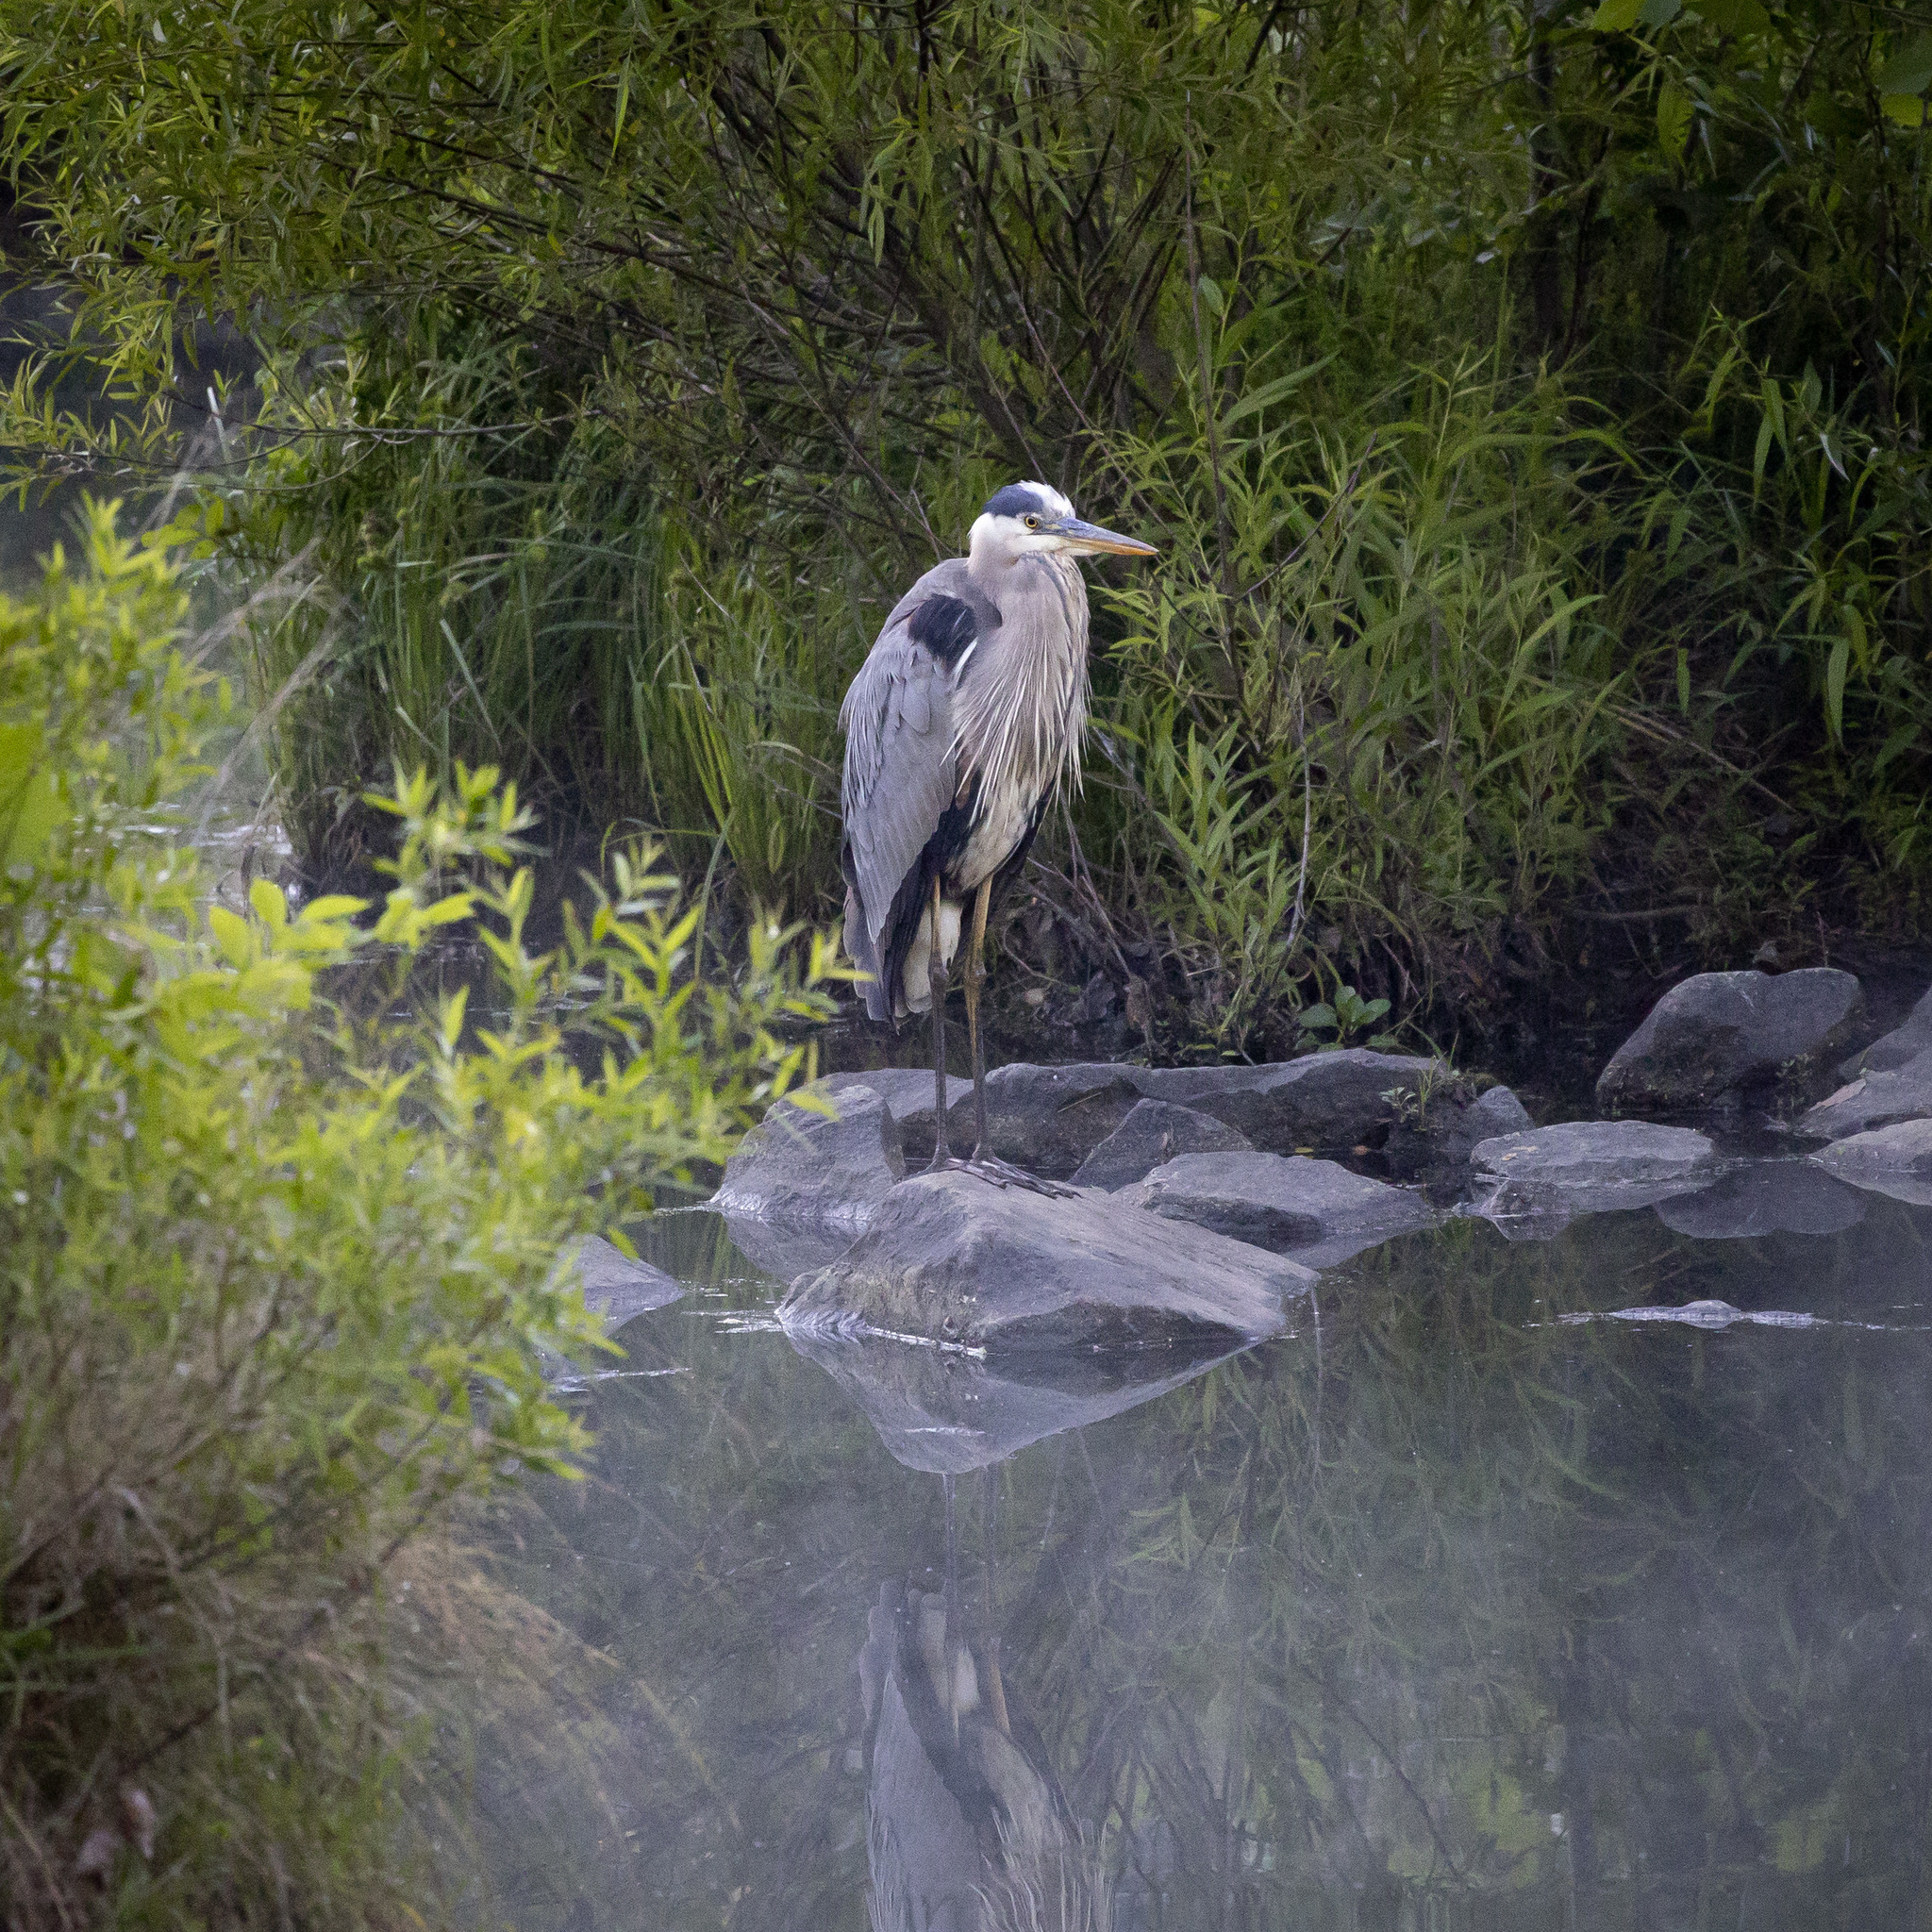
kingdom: Animalia
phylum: Chordata
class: Aves
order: Pelecaniformes
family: Ardeidae
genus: Ardea
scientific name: Ardea herodias
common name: Great blue heron
